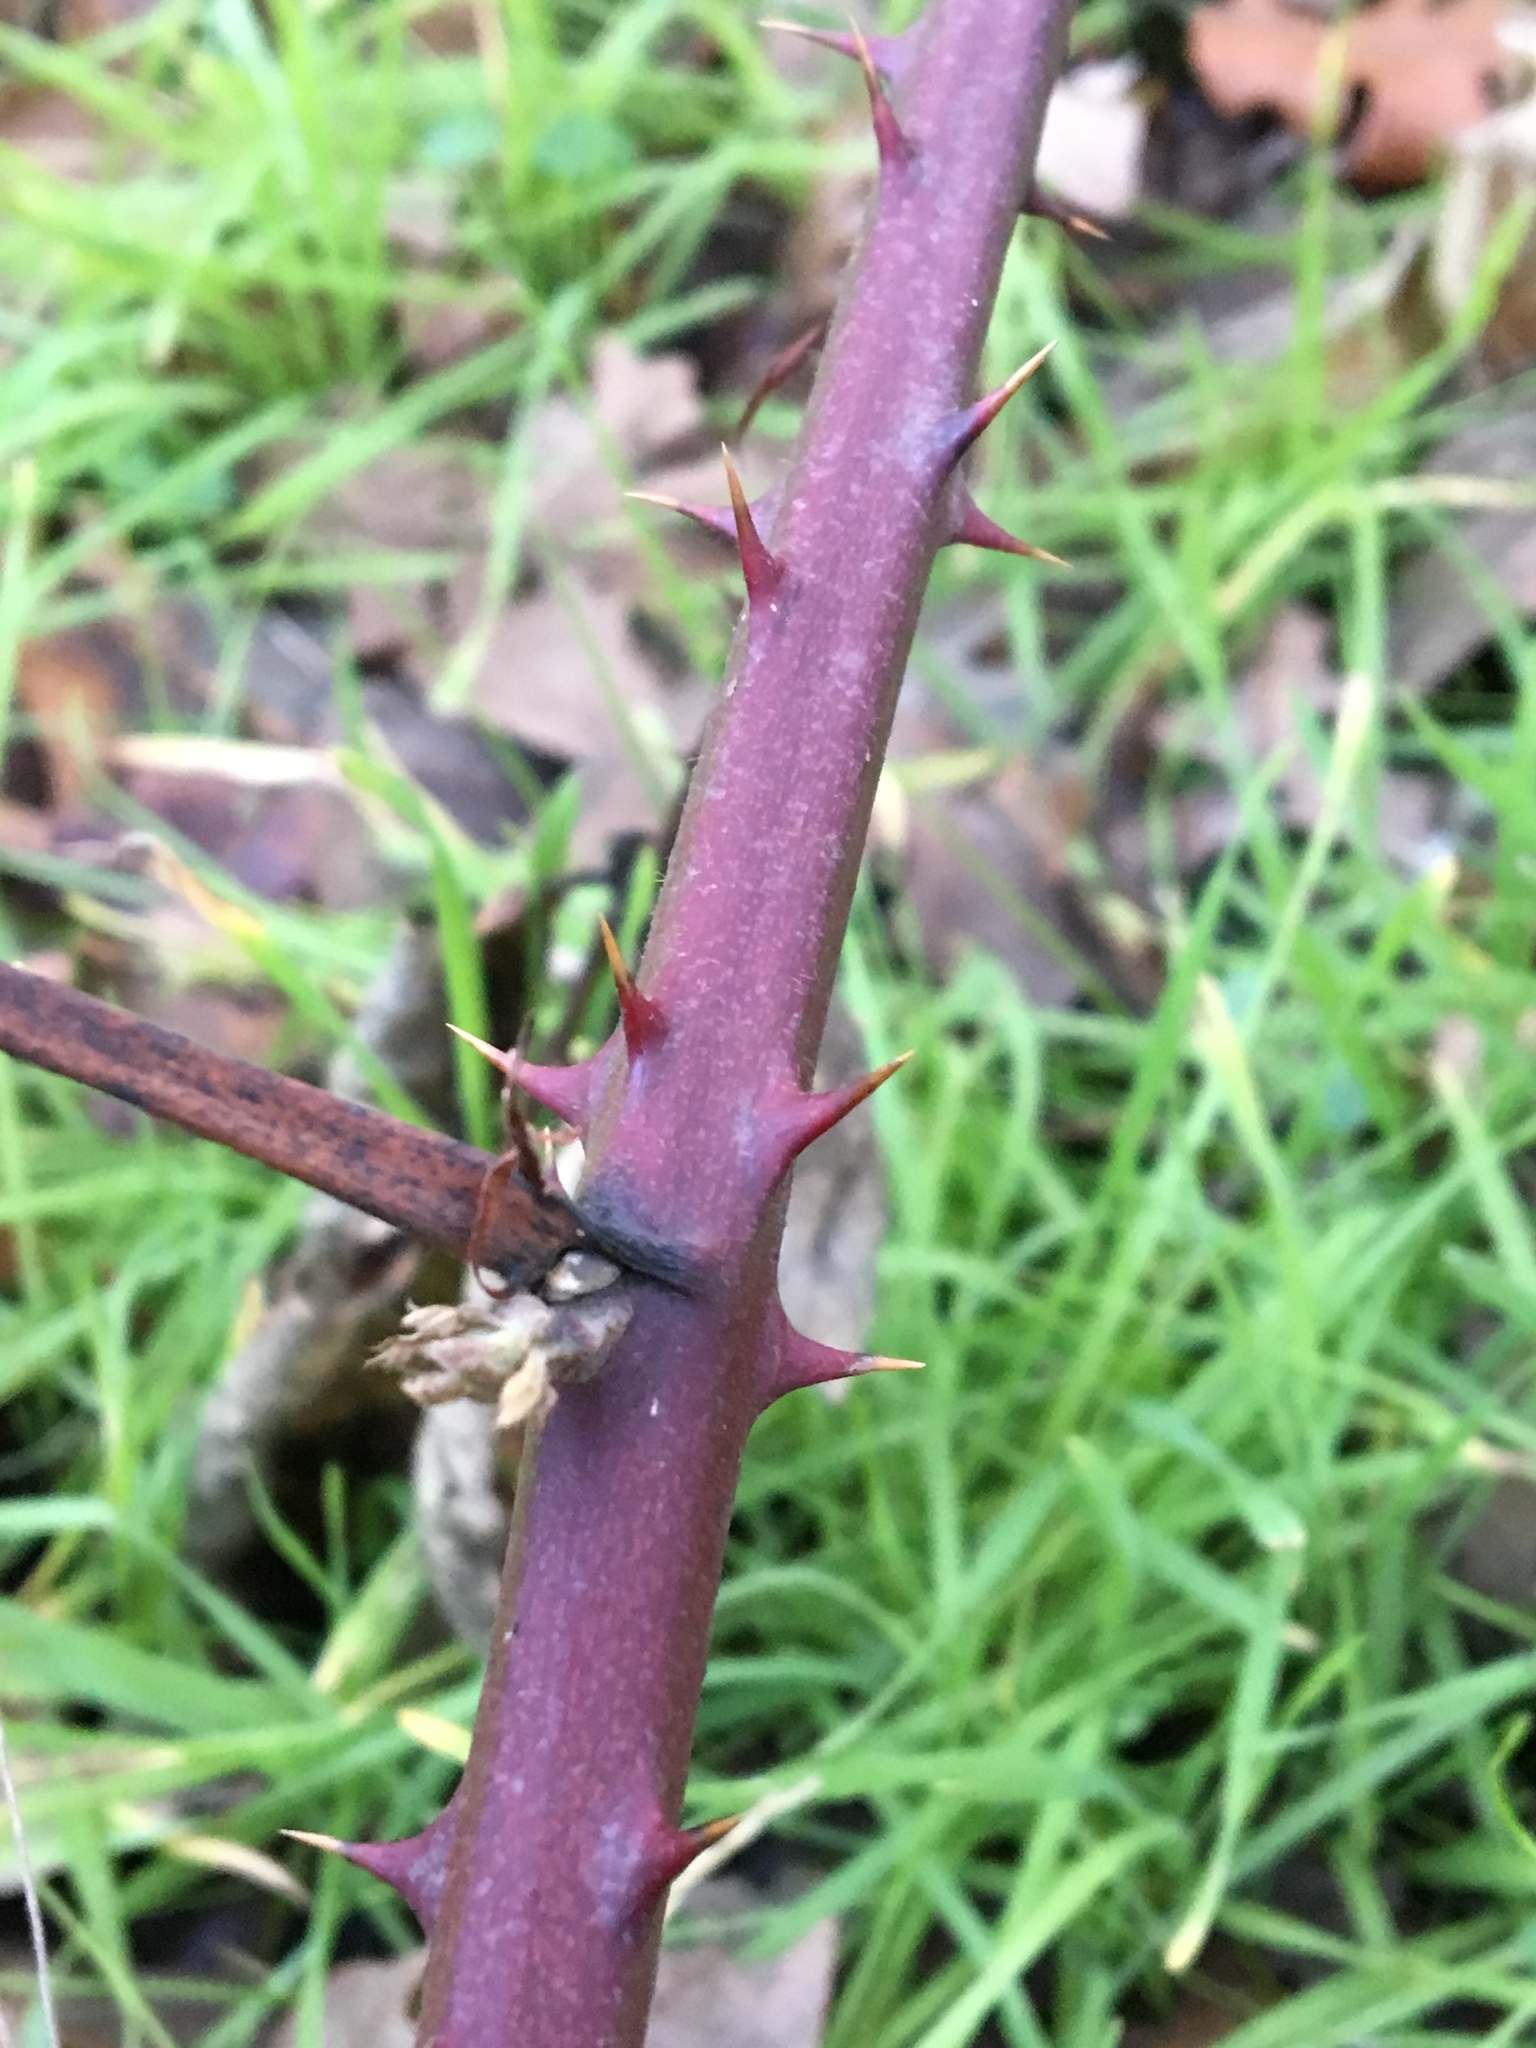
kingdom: Plantae
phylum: Tracheophyta
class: Magnoliopsida
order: Rosales
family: Rosaceae
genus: Rubus
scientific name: Rubus armeniacus
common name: Himalayan blackberry
